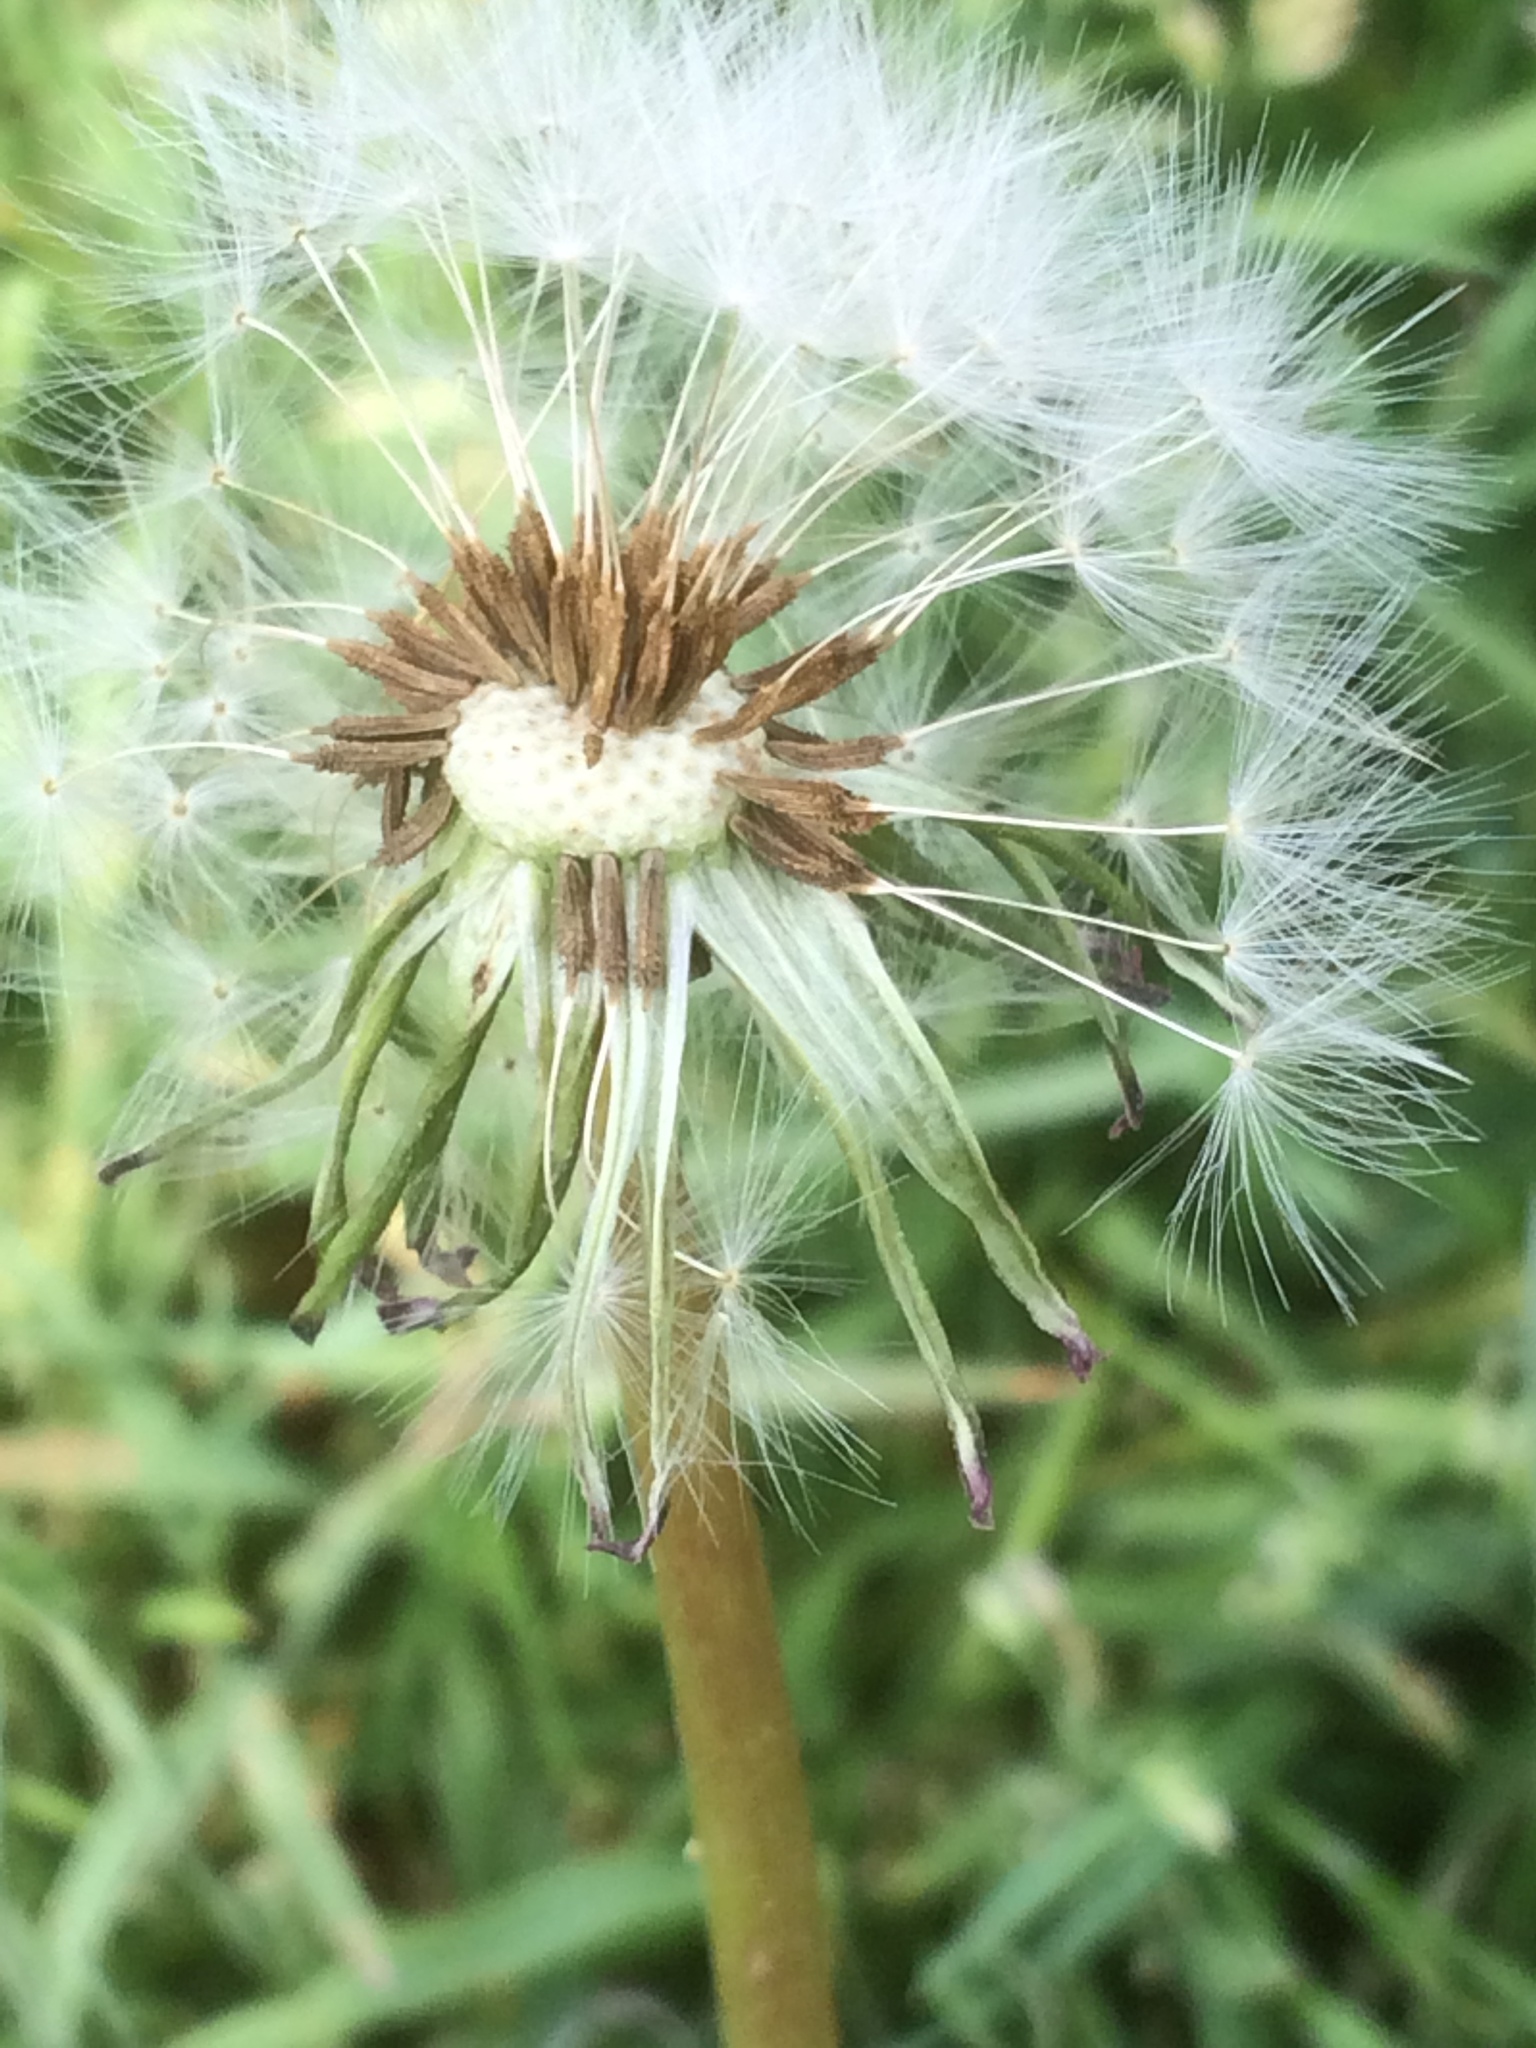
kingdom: Plantae
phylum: Tracheophyta
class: Magnoliopsida
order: Asterales
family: Asteraceae
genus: Taraxacum
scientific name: Taraxacum officinale
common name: Common dandelion
